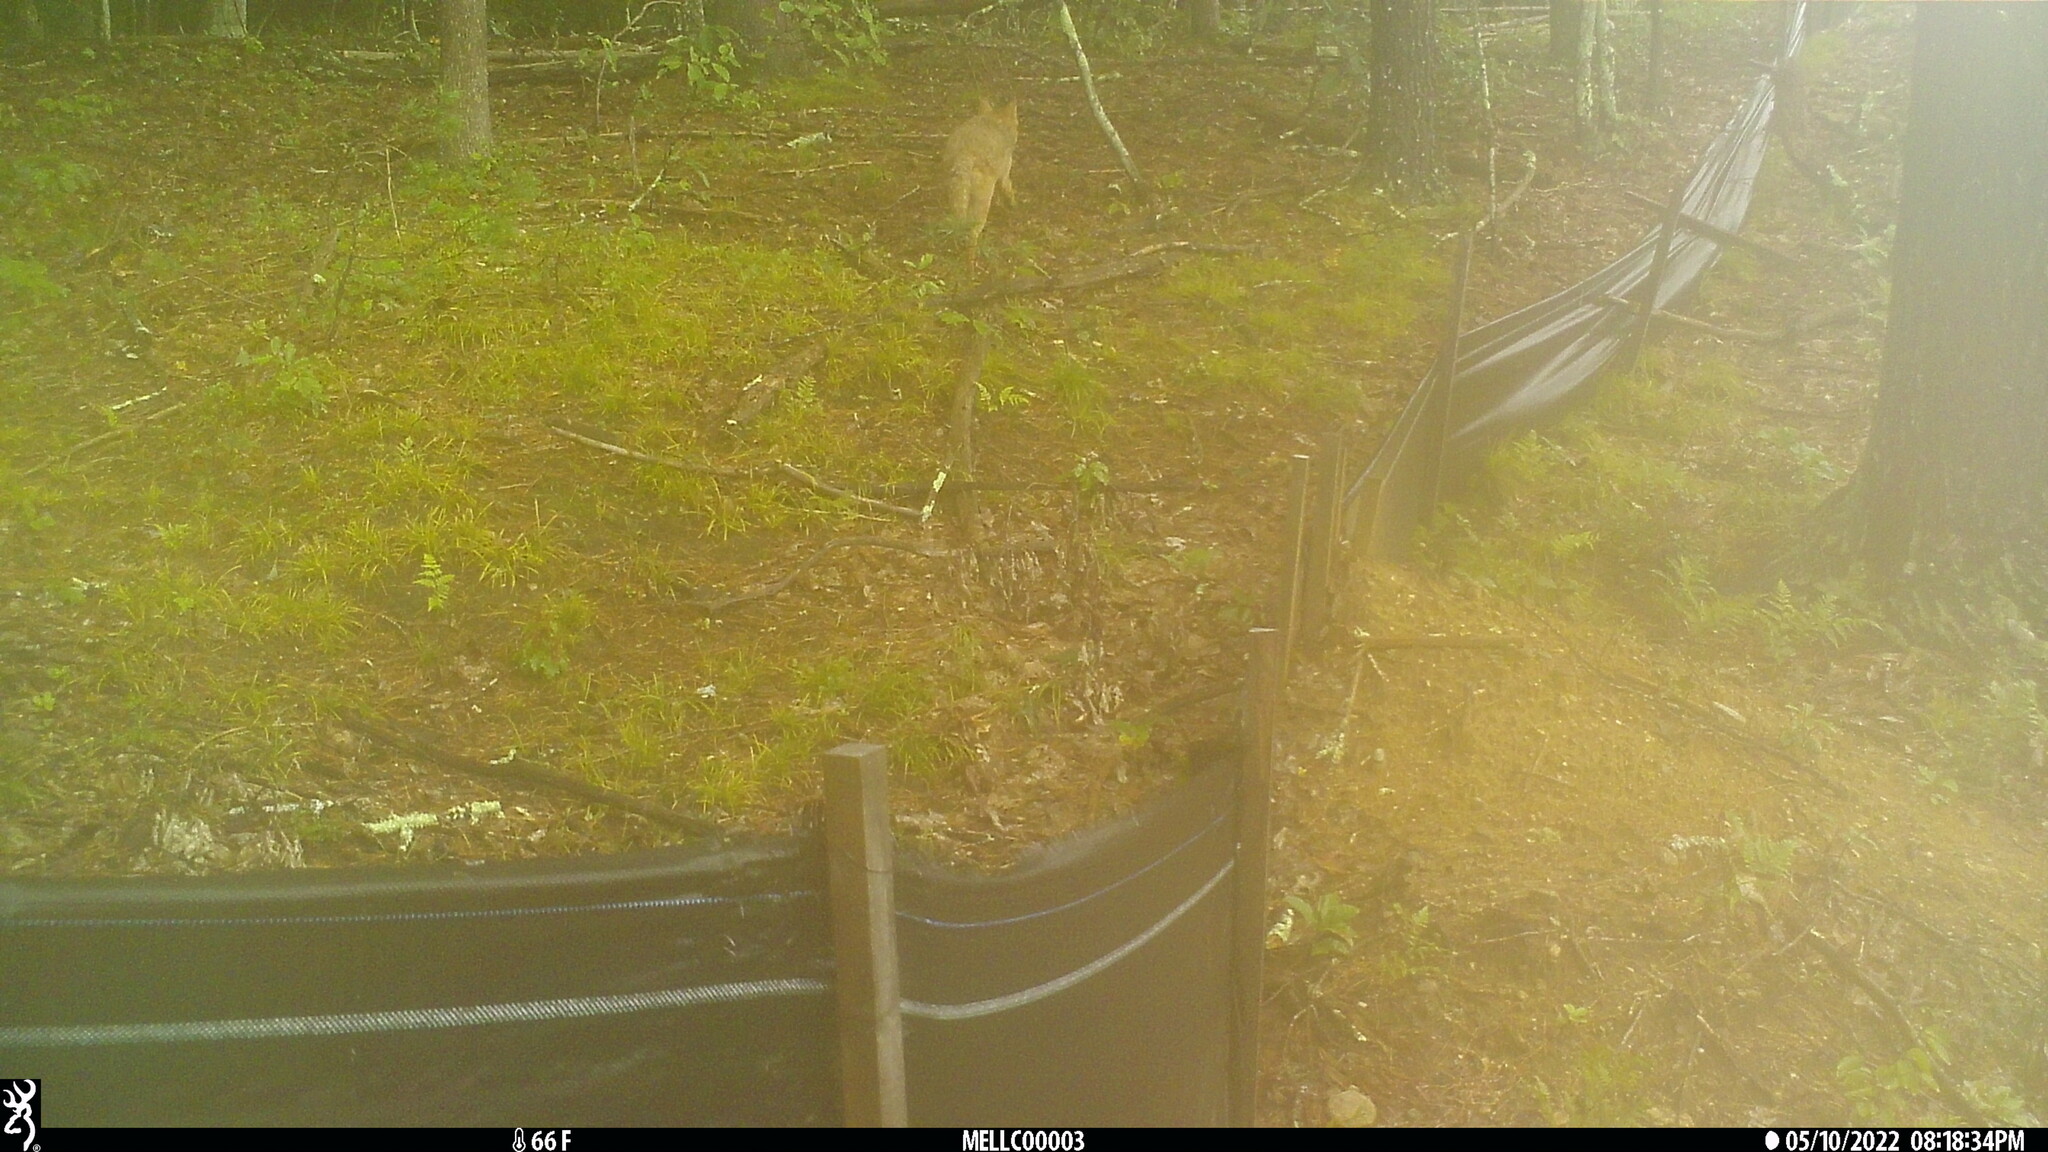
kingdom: Animalia
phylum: Chordata
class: Mammalia
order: Carnivora
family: Canidae
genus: Canis
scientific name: Canis latrans
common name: Coyote
